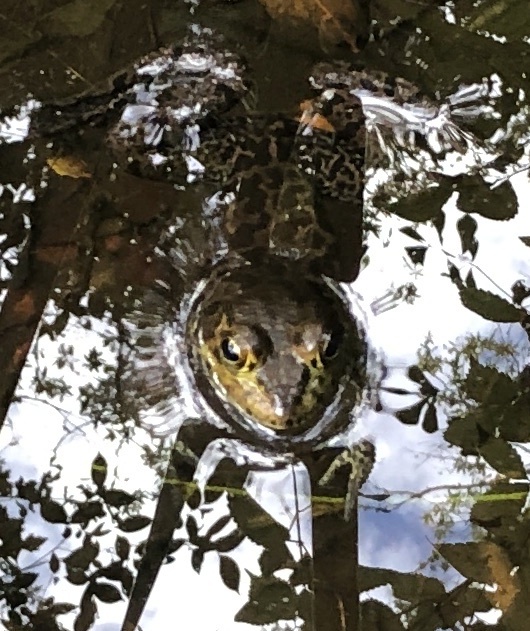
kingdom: Animalia
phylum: Chordata
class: Amphibia
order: Anura
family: Ranidae
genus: Lithobates
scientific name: Lithobates catesbeianus
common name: American bullfrog
